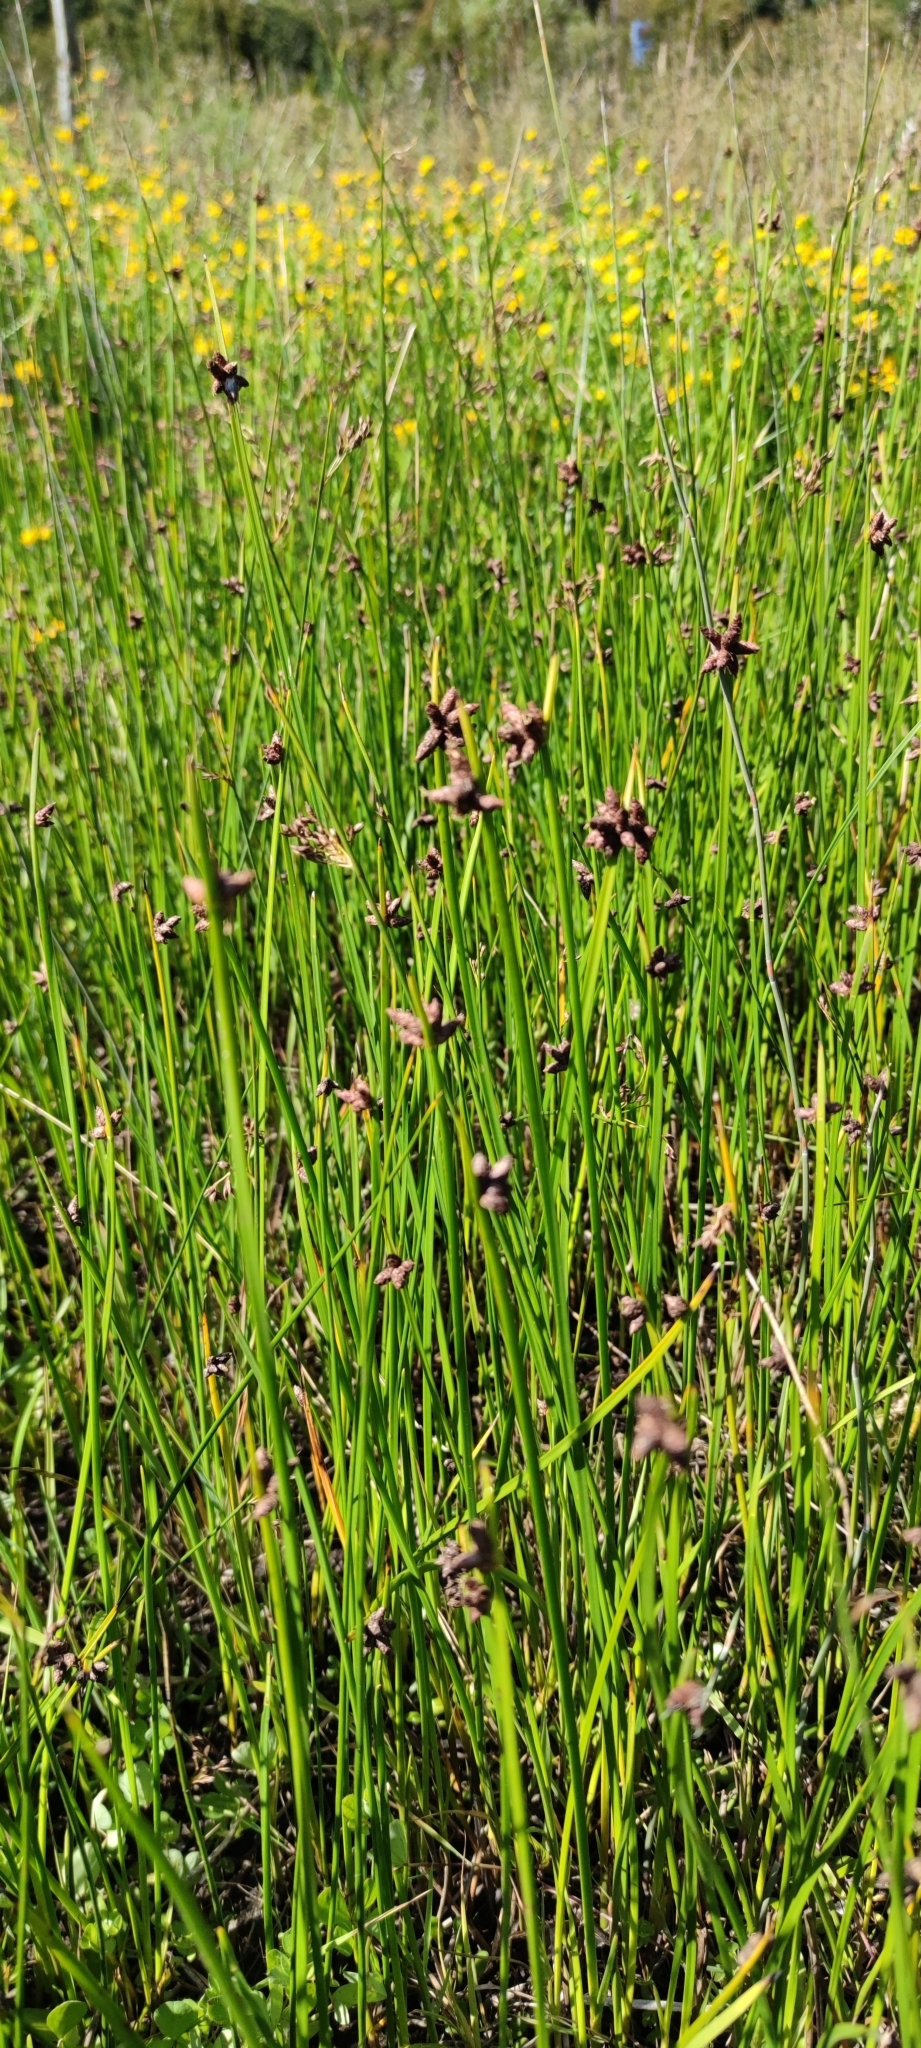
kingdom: Plantae
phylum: Tracheophyta
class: Liliopsida
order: Poales
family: Cyperaceae
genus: Schoenoplectus
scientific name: Schoenoplectus pungens
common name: Sharp club-rush
